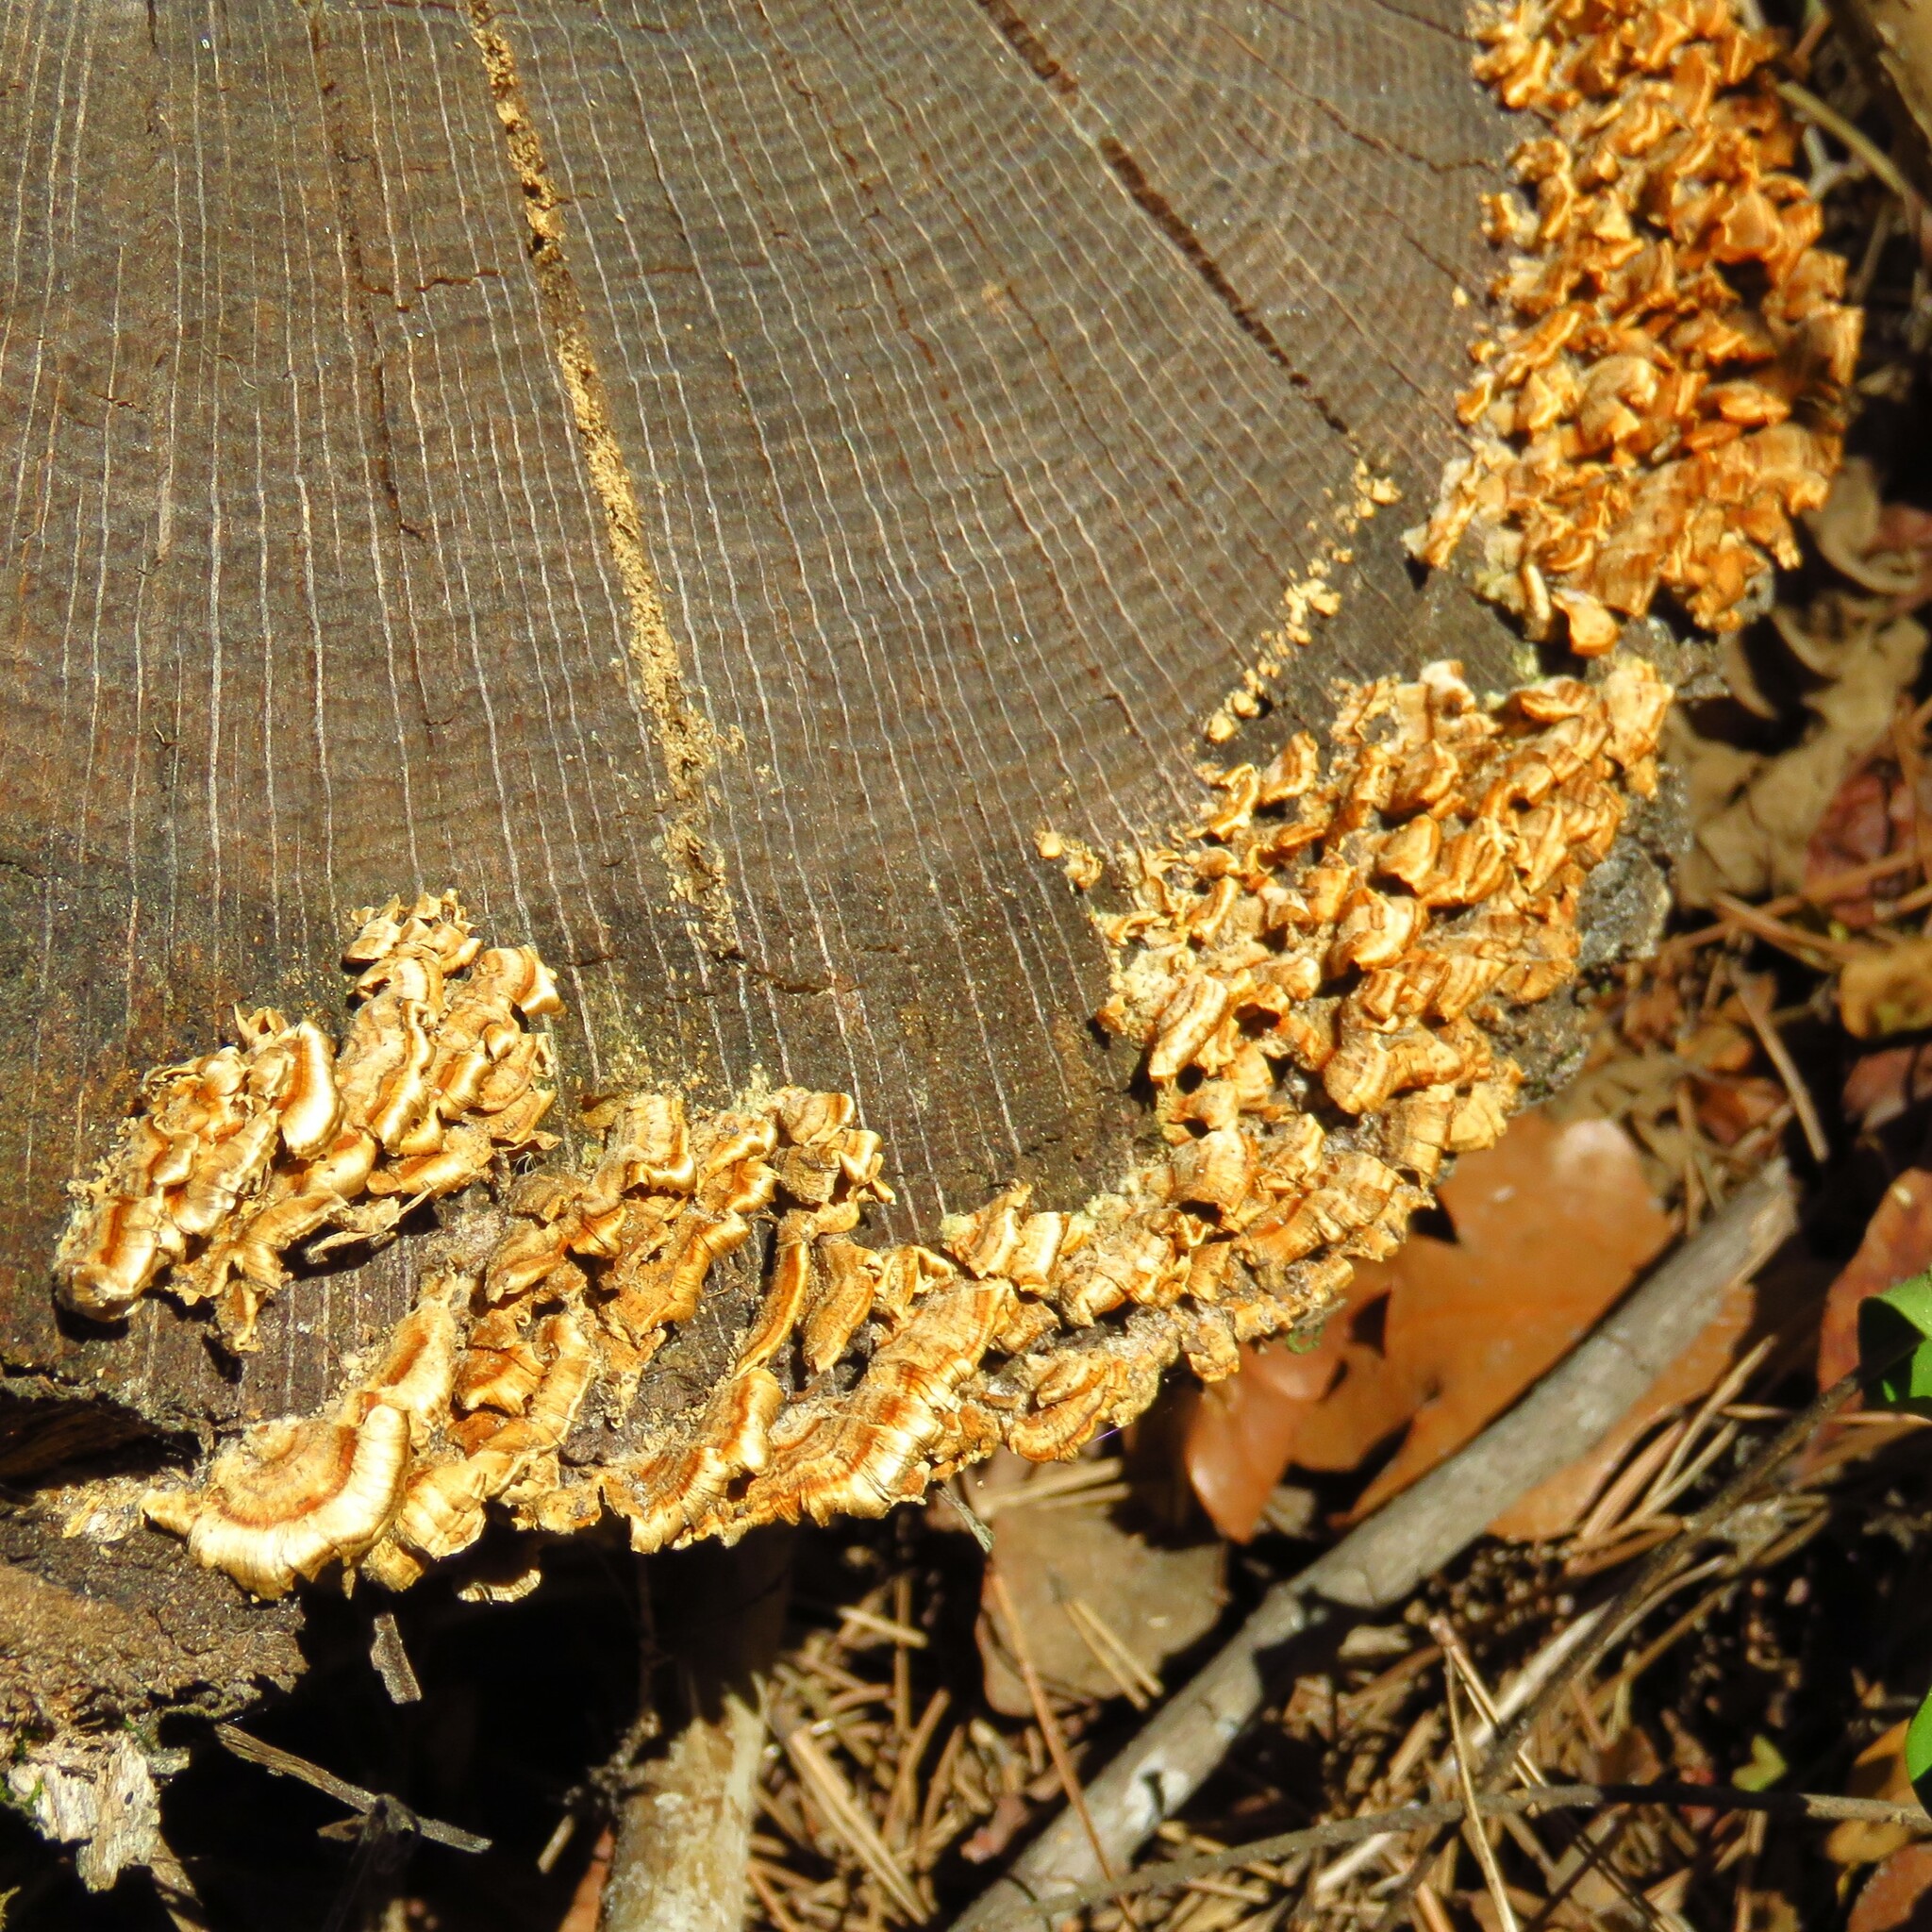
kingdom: Fungi
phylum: Basidiomycota
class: Agaricomycetes
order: Russulales
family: Stereaceae
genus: Stereum
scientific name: Stereum complicatum
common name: Crowded parchment
